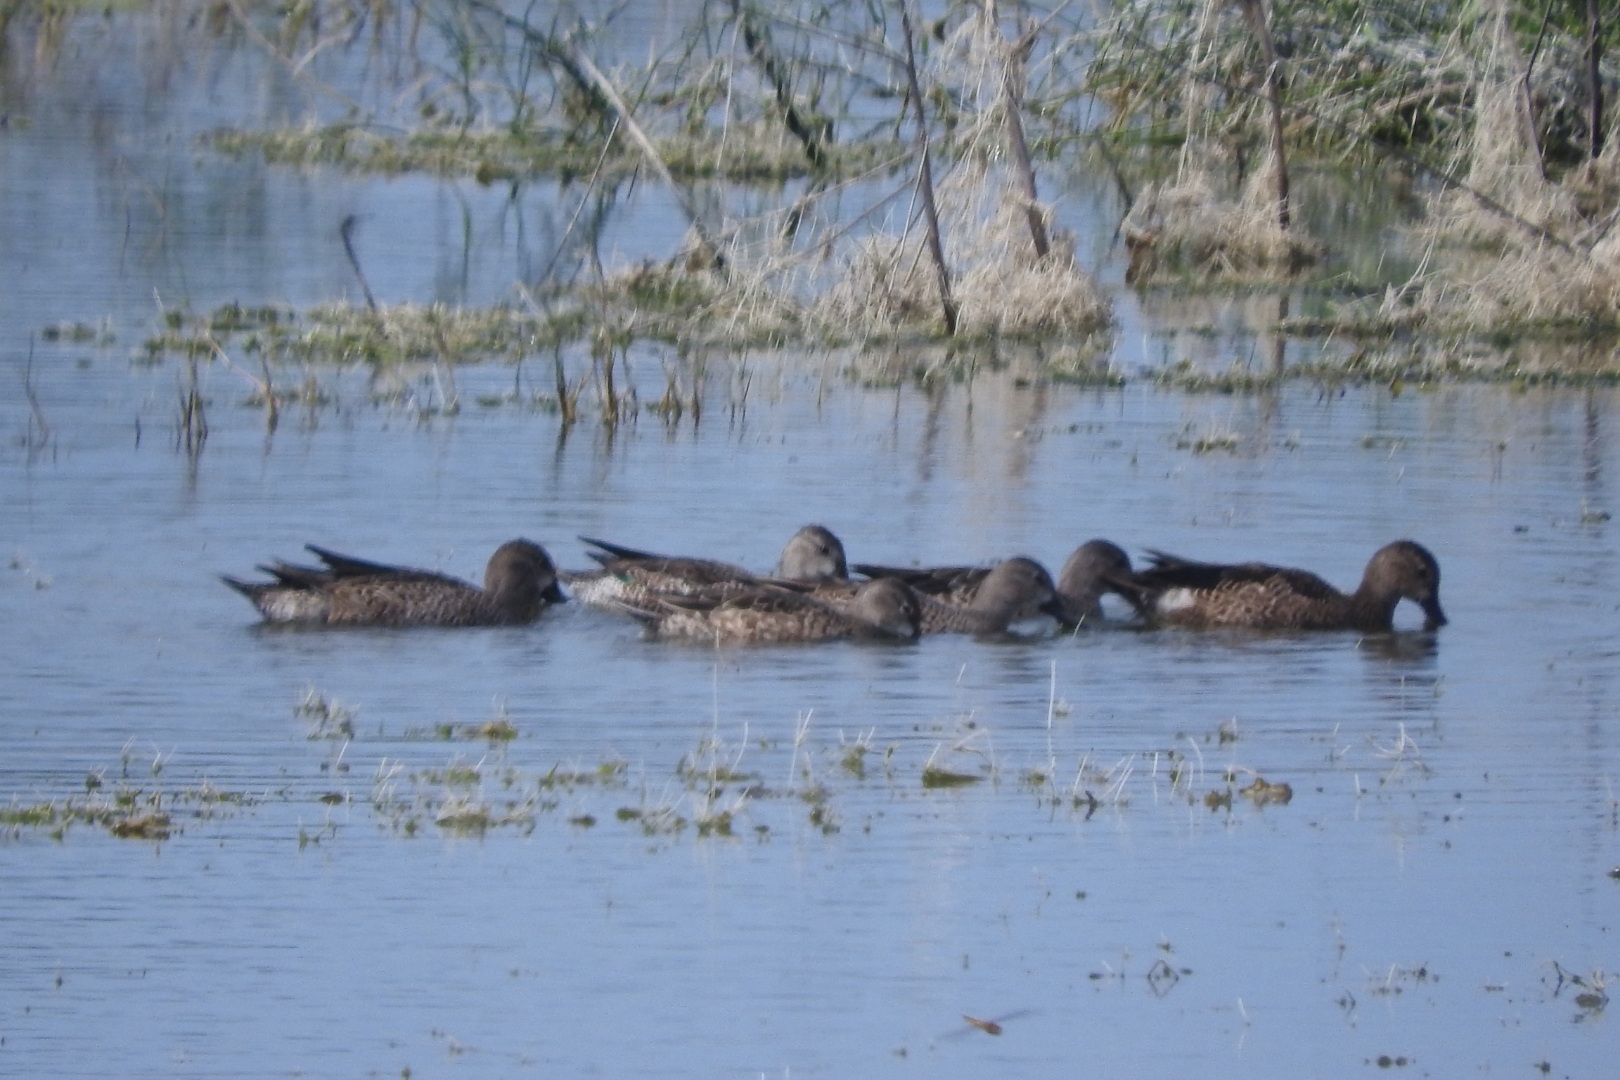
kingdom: Animalia
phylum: Chordata
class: Aves
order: Anseriformes
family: Anatidae
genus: Spatula
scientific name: Spatula discors
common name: Blue-winged teal
